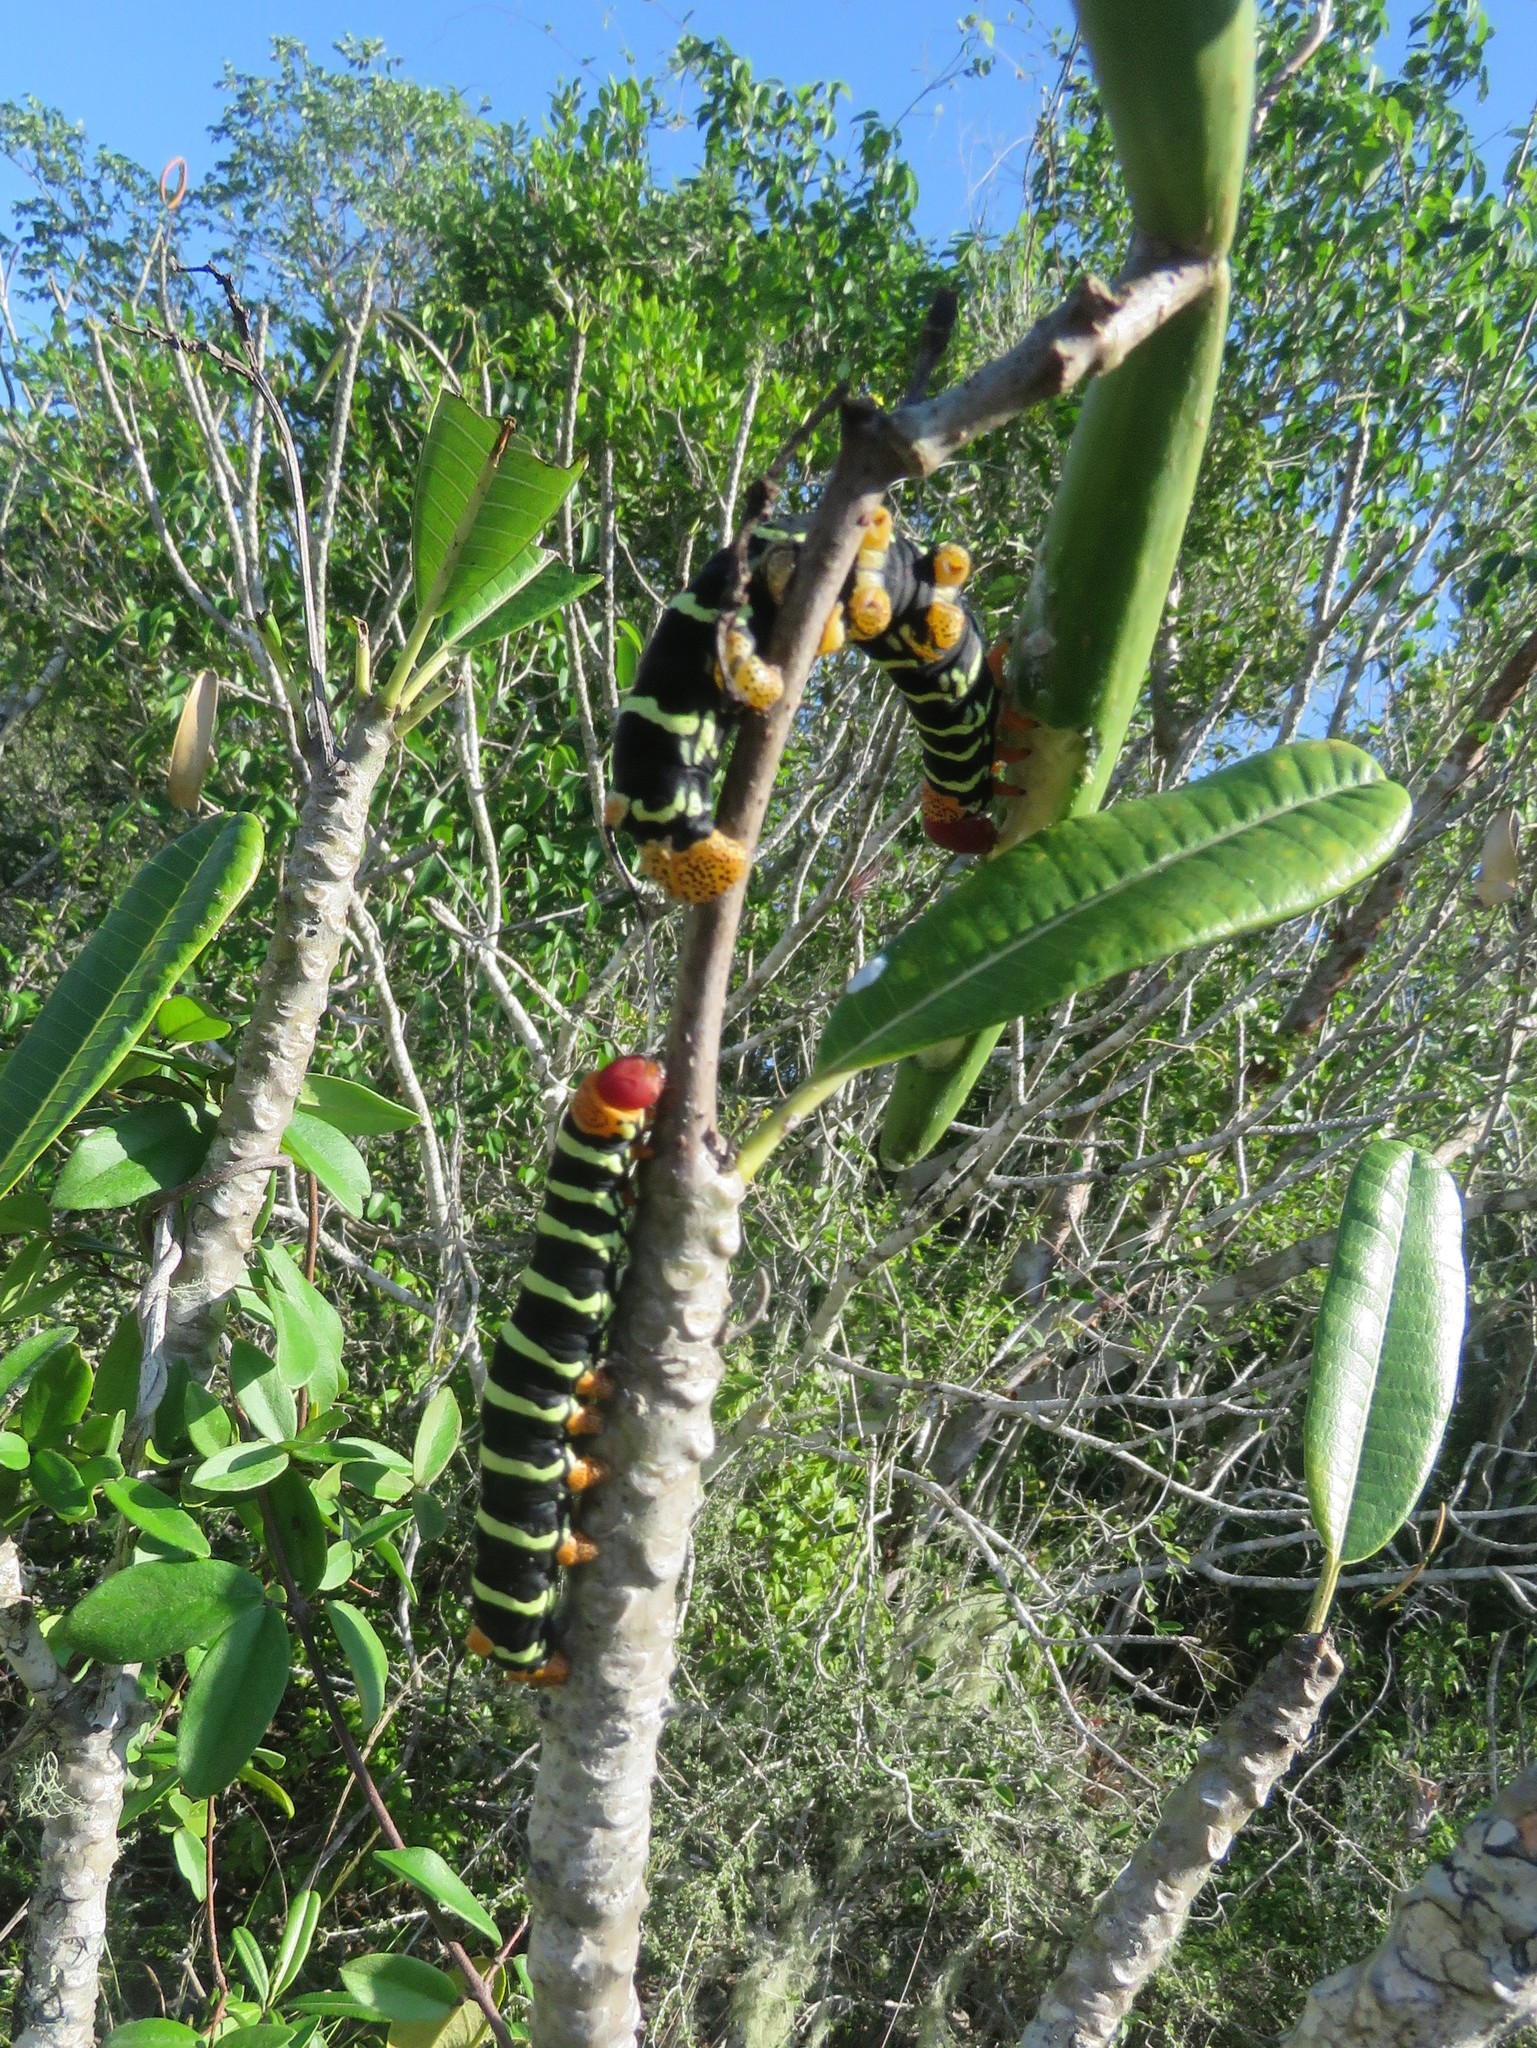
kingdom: Animalia
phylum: Arthropoda
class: Insecta
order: Lepidoptera
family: Sphingidae
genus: Pseudosphinx
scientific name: Pseudosphinx tetrio
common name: Tetrio sphinx
